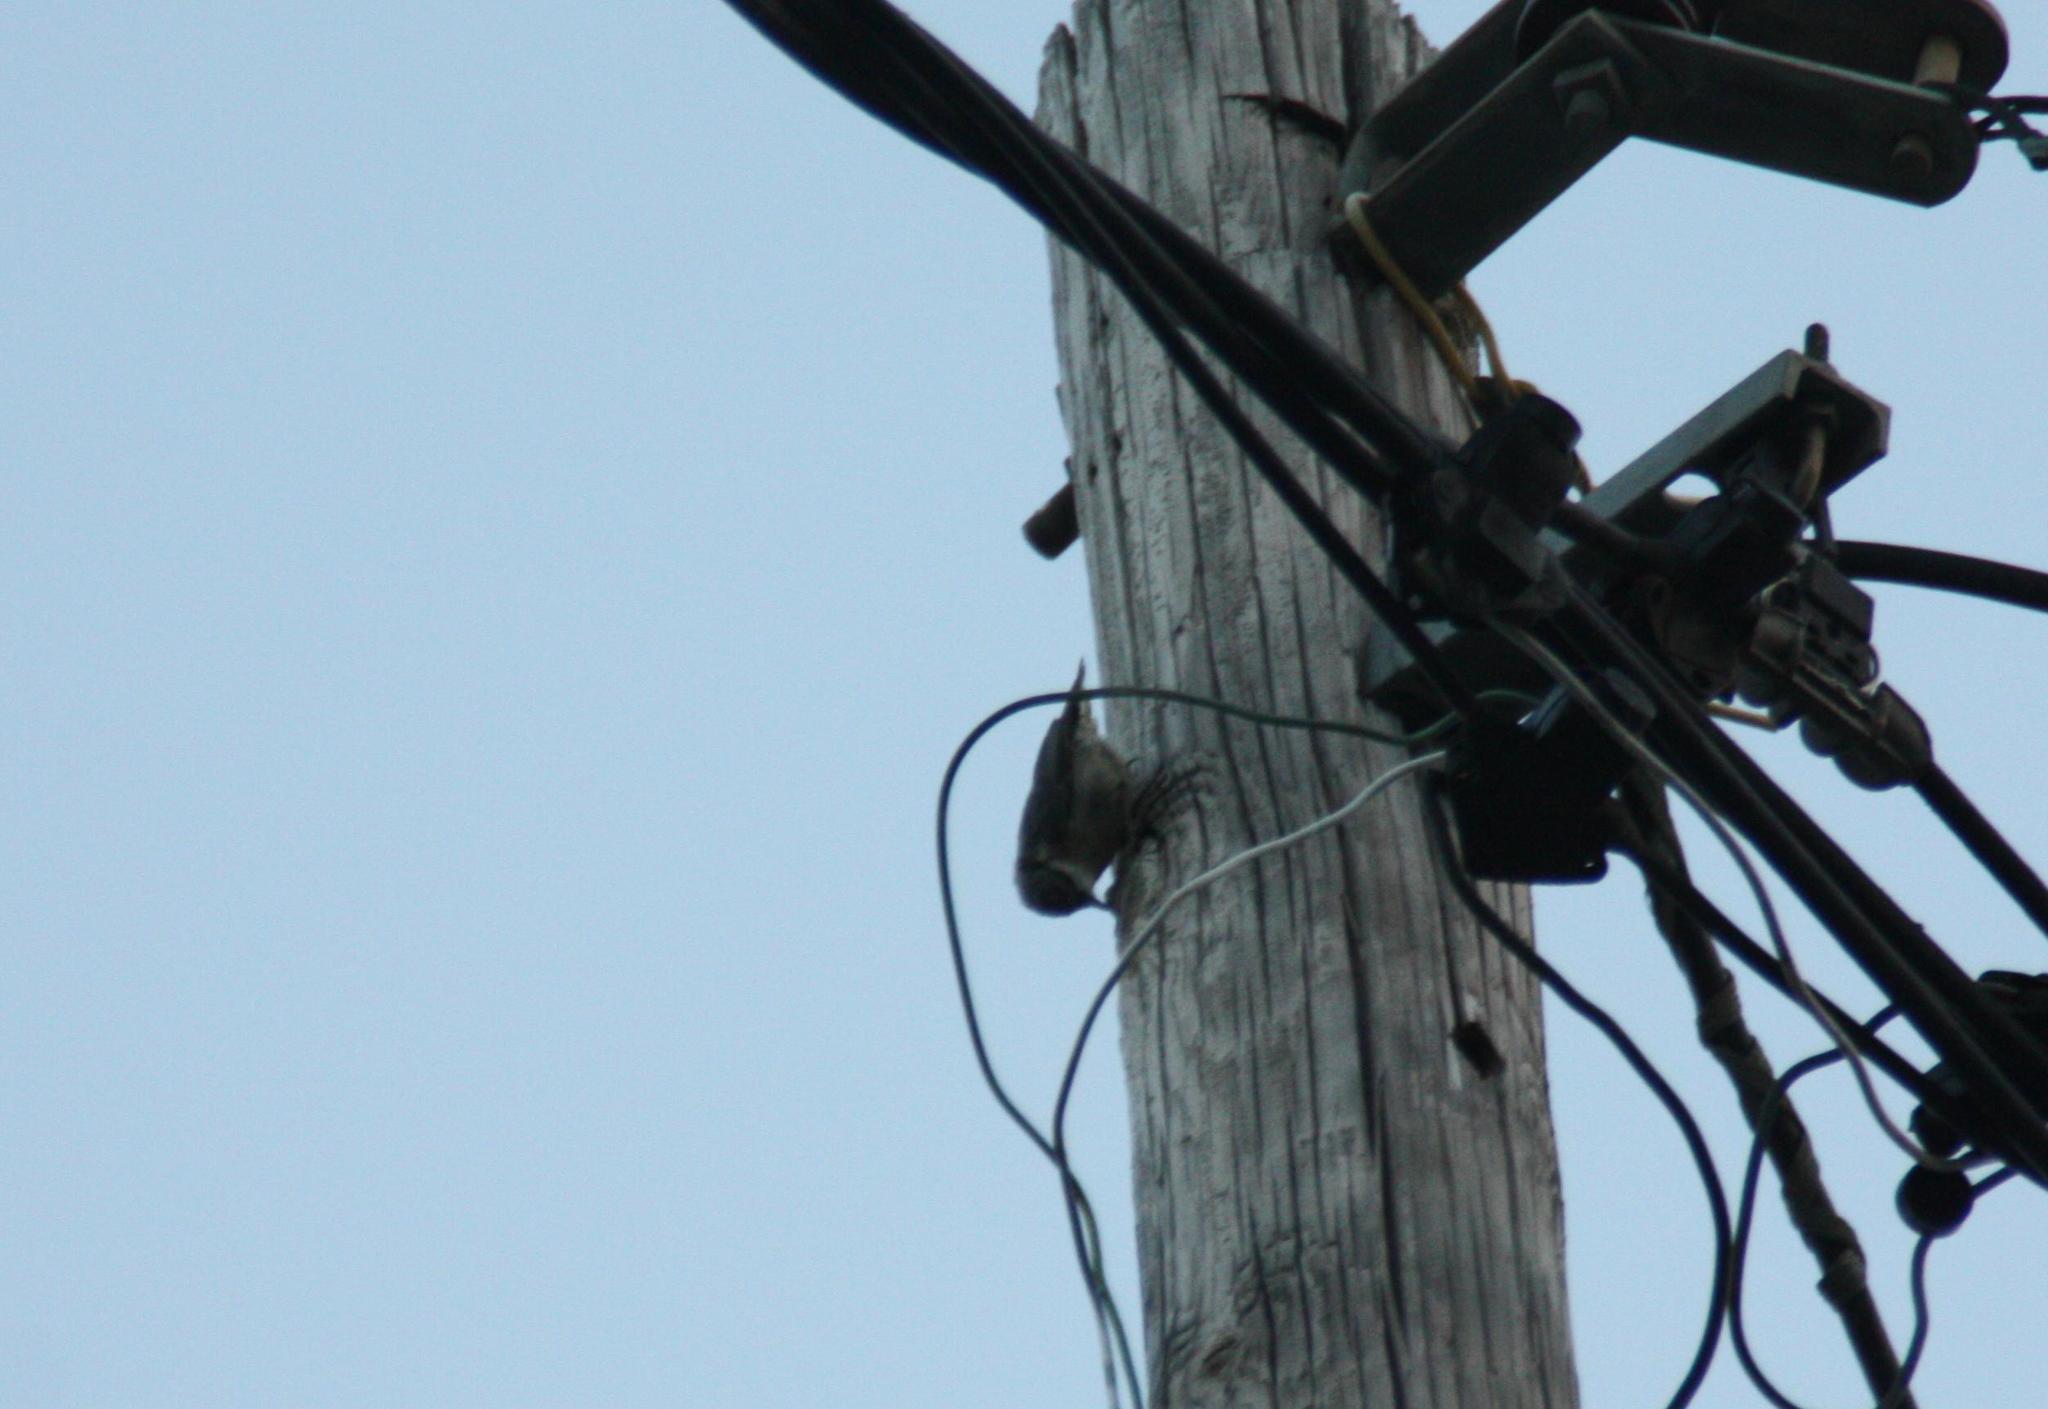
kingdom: Animalia
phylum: Chordata
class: Aves
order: Passeriformes
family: Sittidae
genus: Sitta
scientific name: Sitta europaea
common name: Eurasian nuthatch
